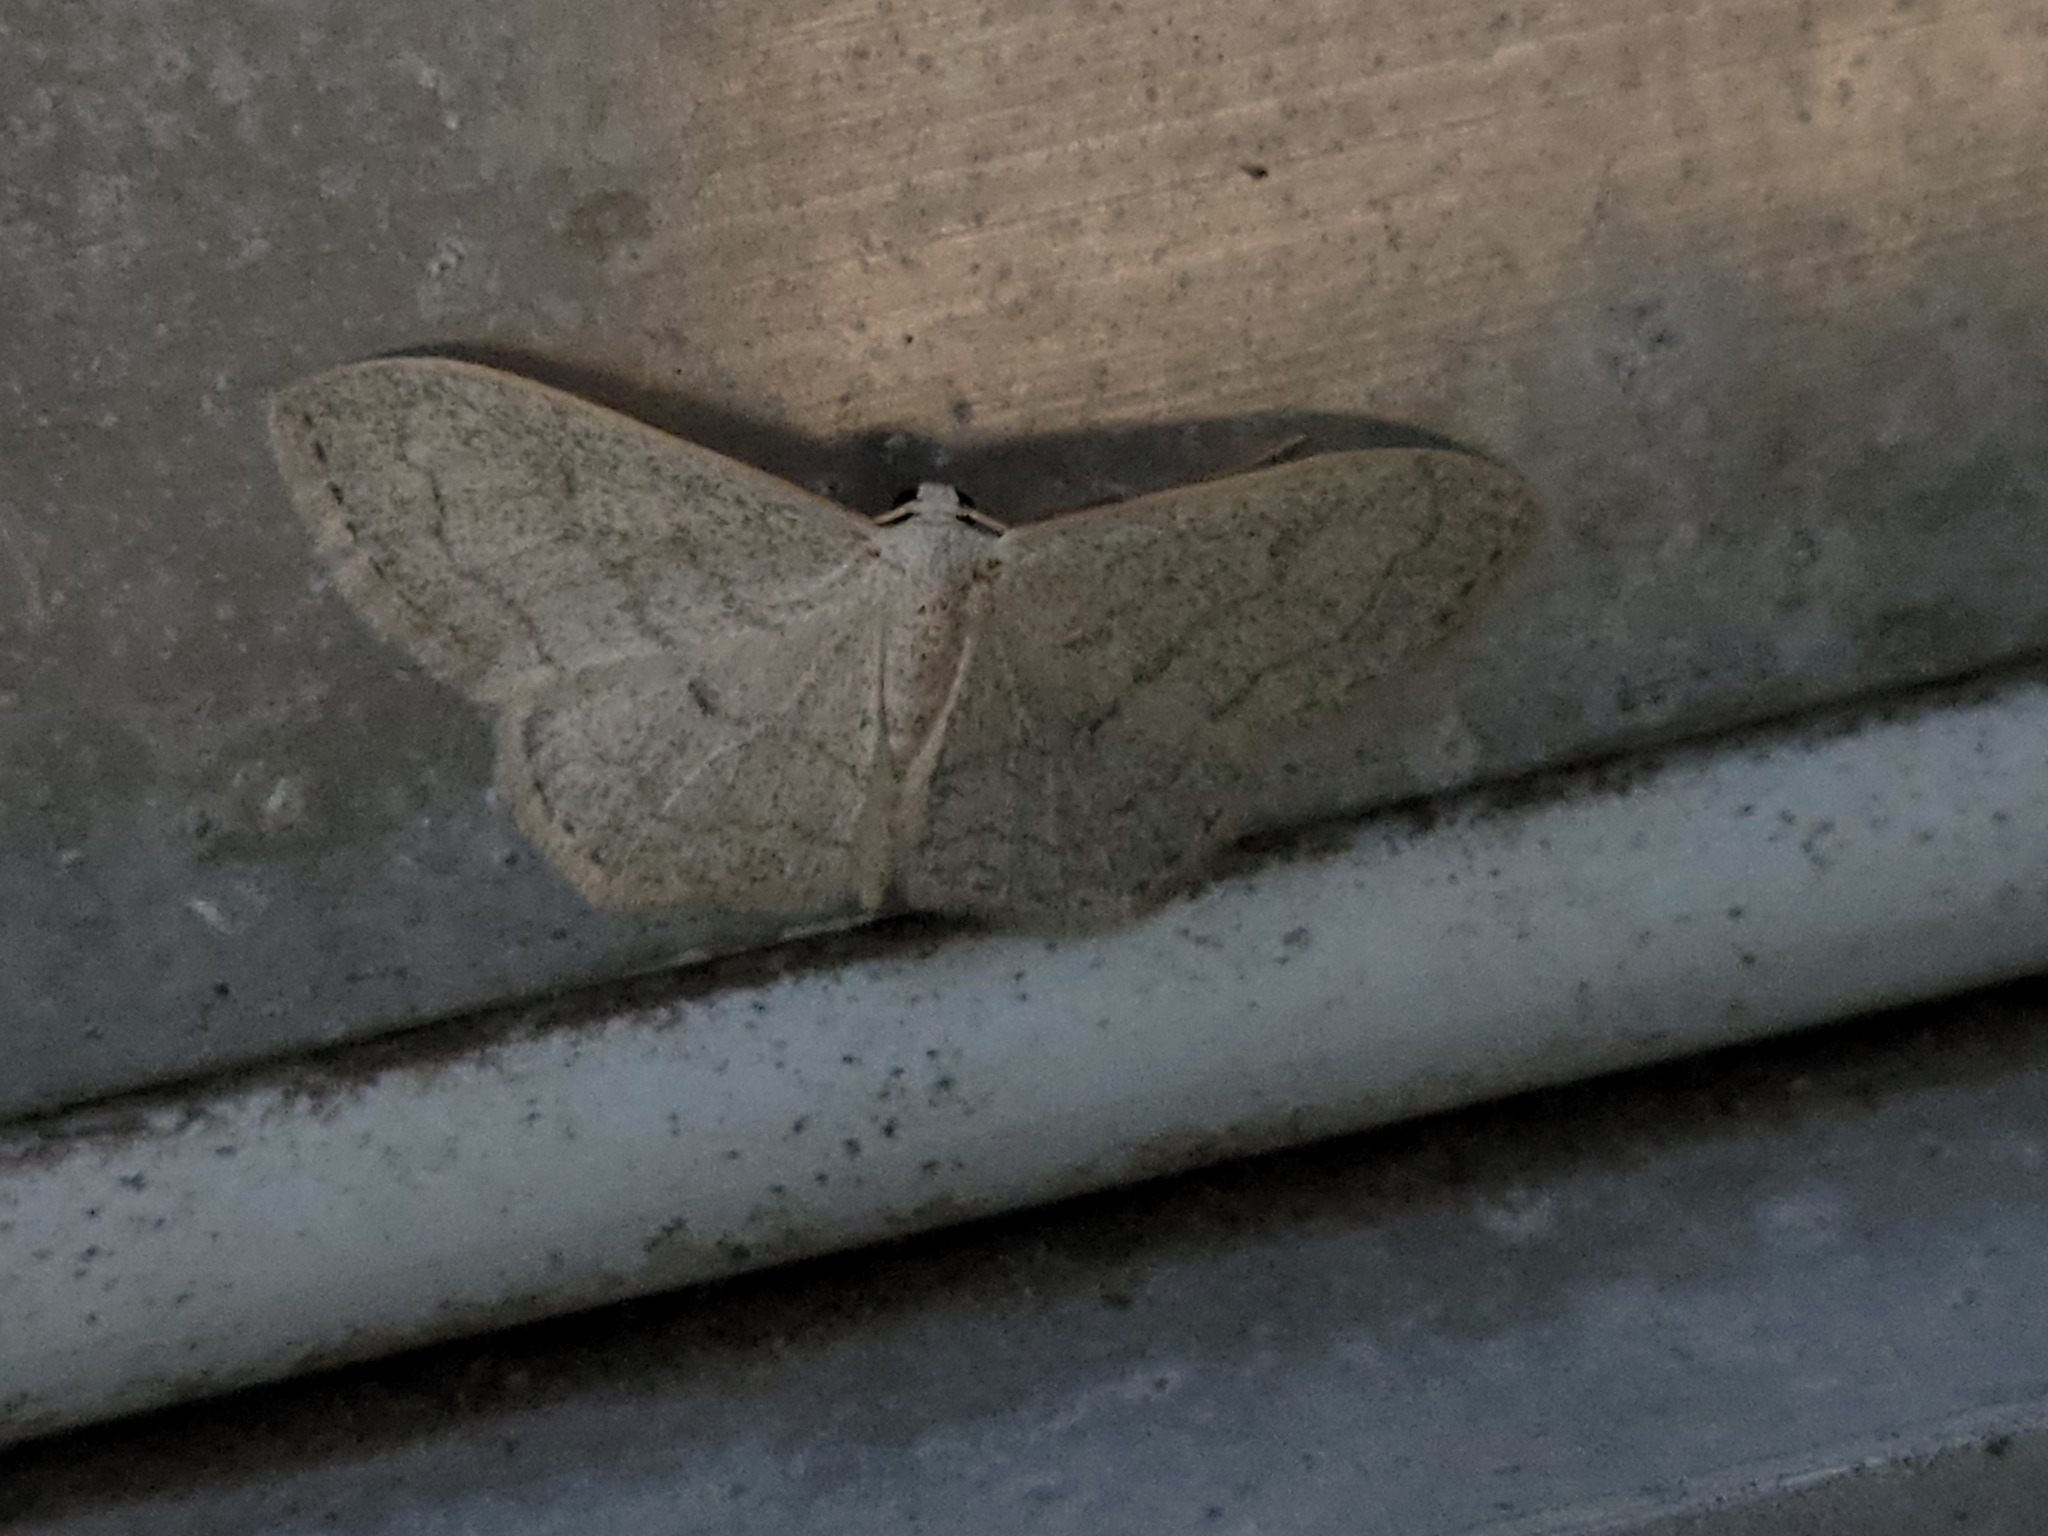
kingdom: Animalia
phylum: Arthropoda
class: Insecta
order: Lepidoptera
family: Geometridae
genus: Acratodes
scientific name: Acratodes suavata
